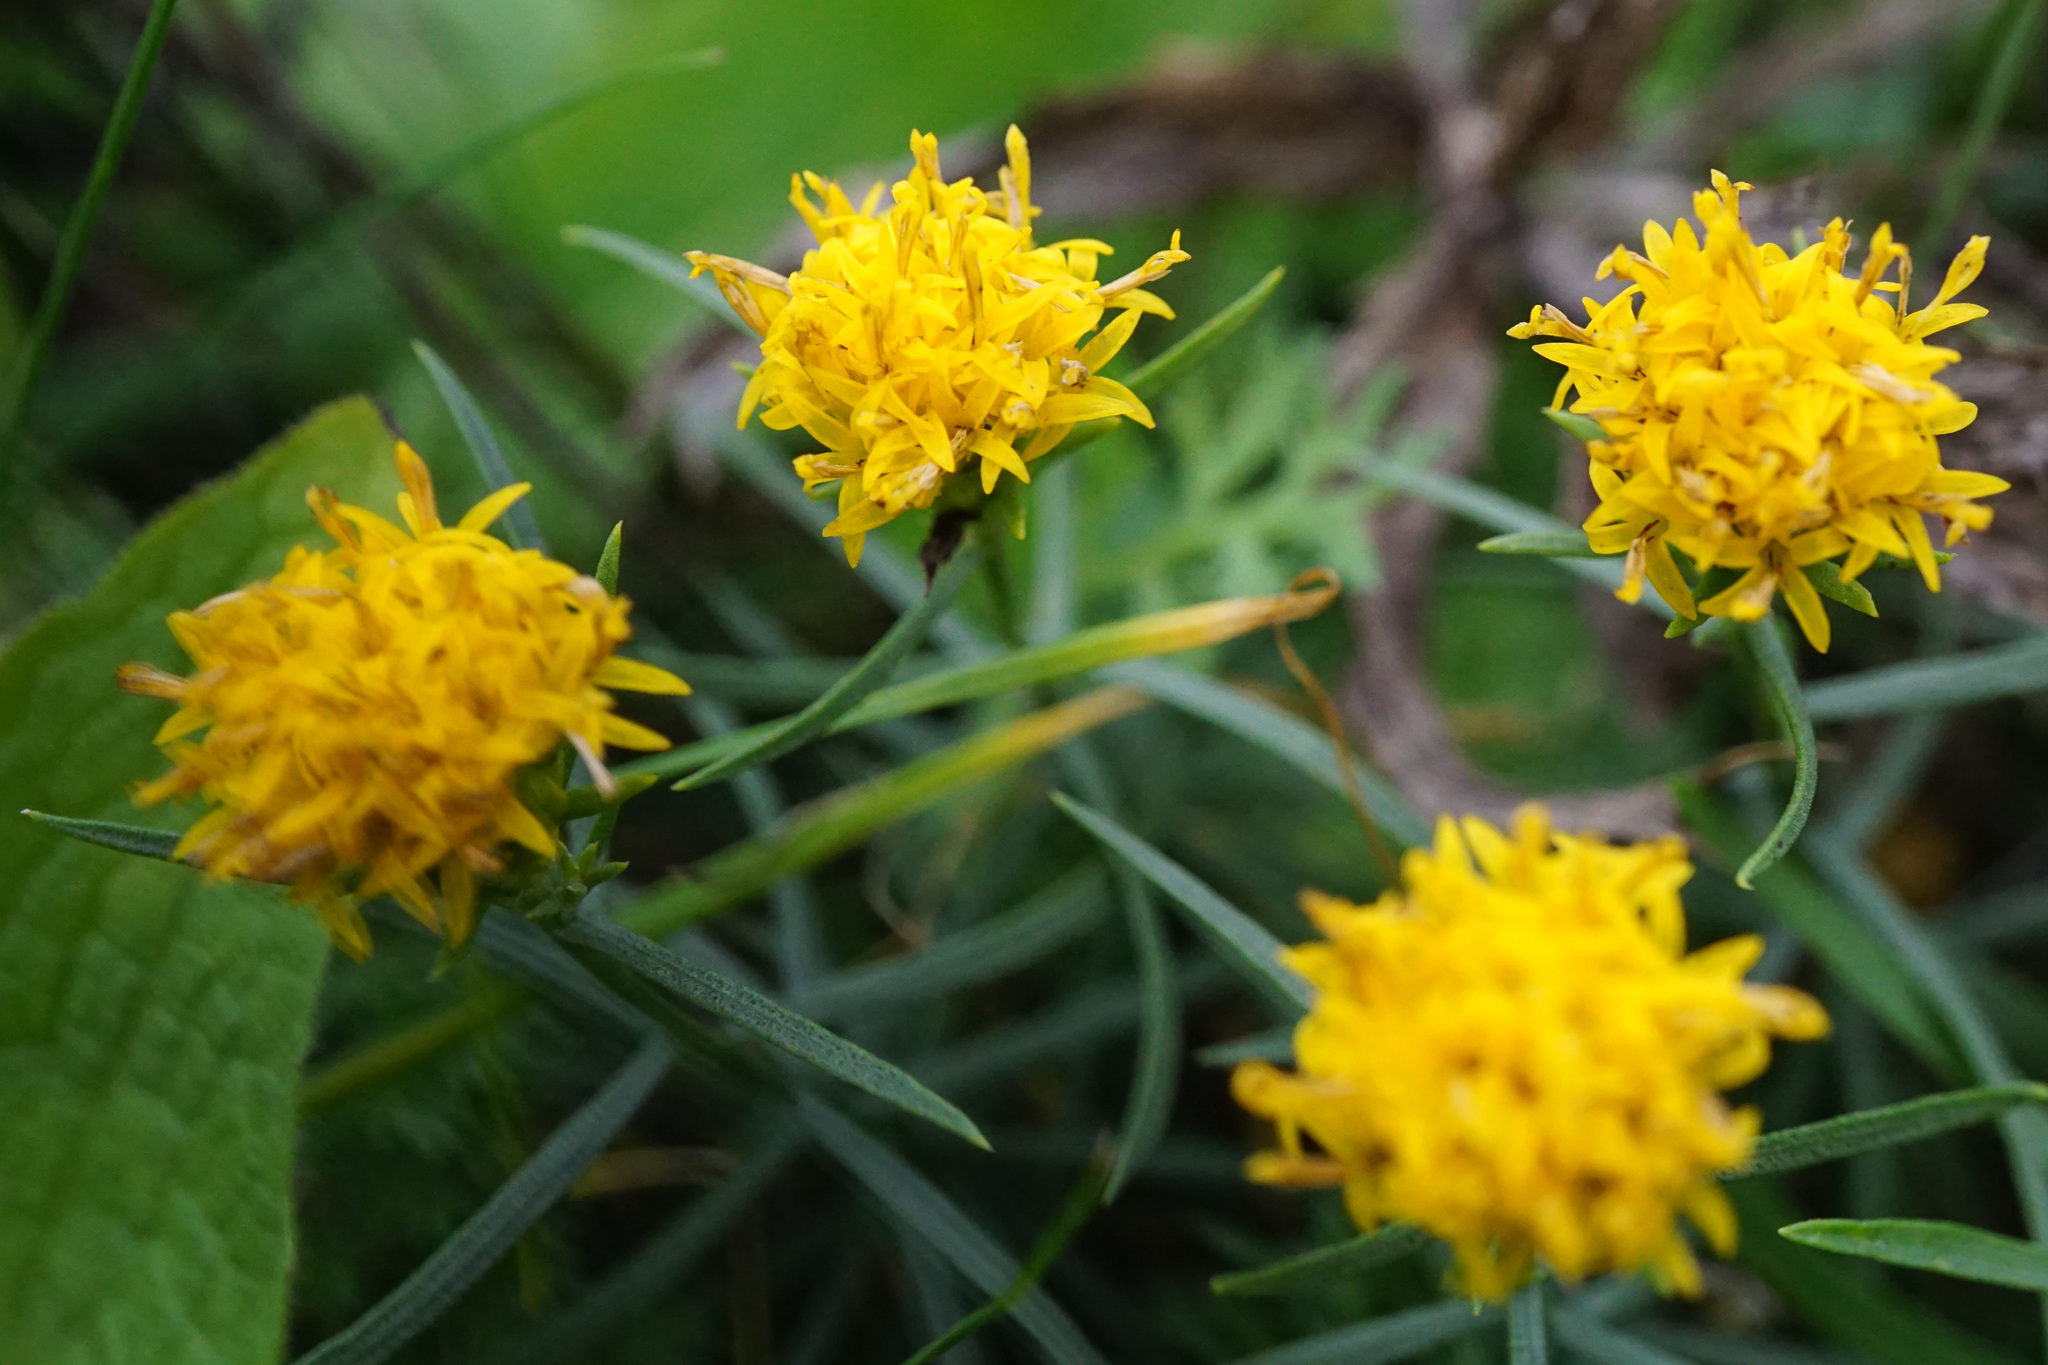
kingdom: Plantae
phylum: Tracheophyta
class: Magnoliopsida
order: Asterales
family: Asteraceae
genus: Galatella
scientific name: Galatella linosyris
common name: Goldilocks aster
